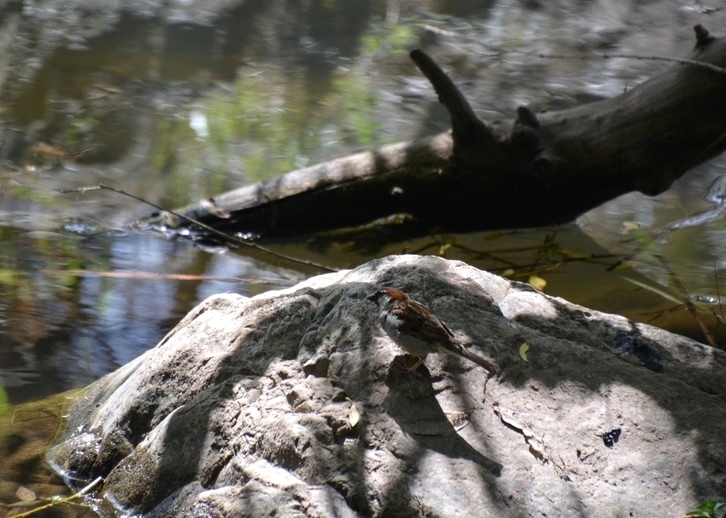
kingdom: Animalia
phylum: Chordata
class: Aves
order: Passeriformes
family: Passeridae
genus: Passer
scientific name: Passer domesticus
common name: House sparrow
